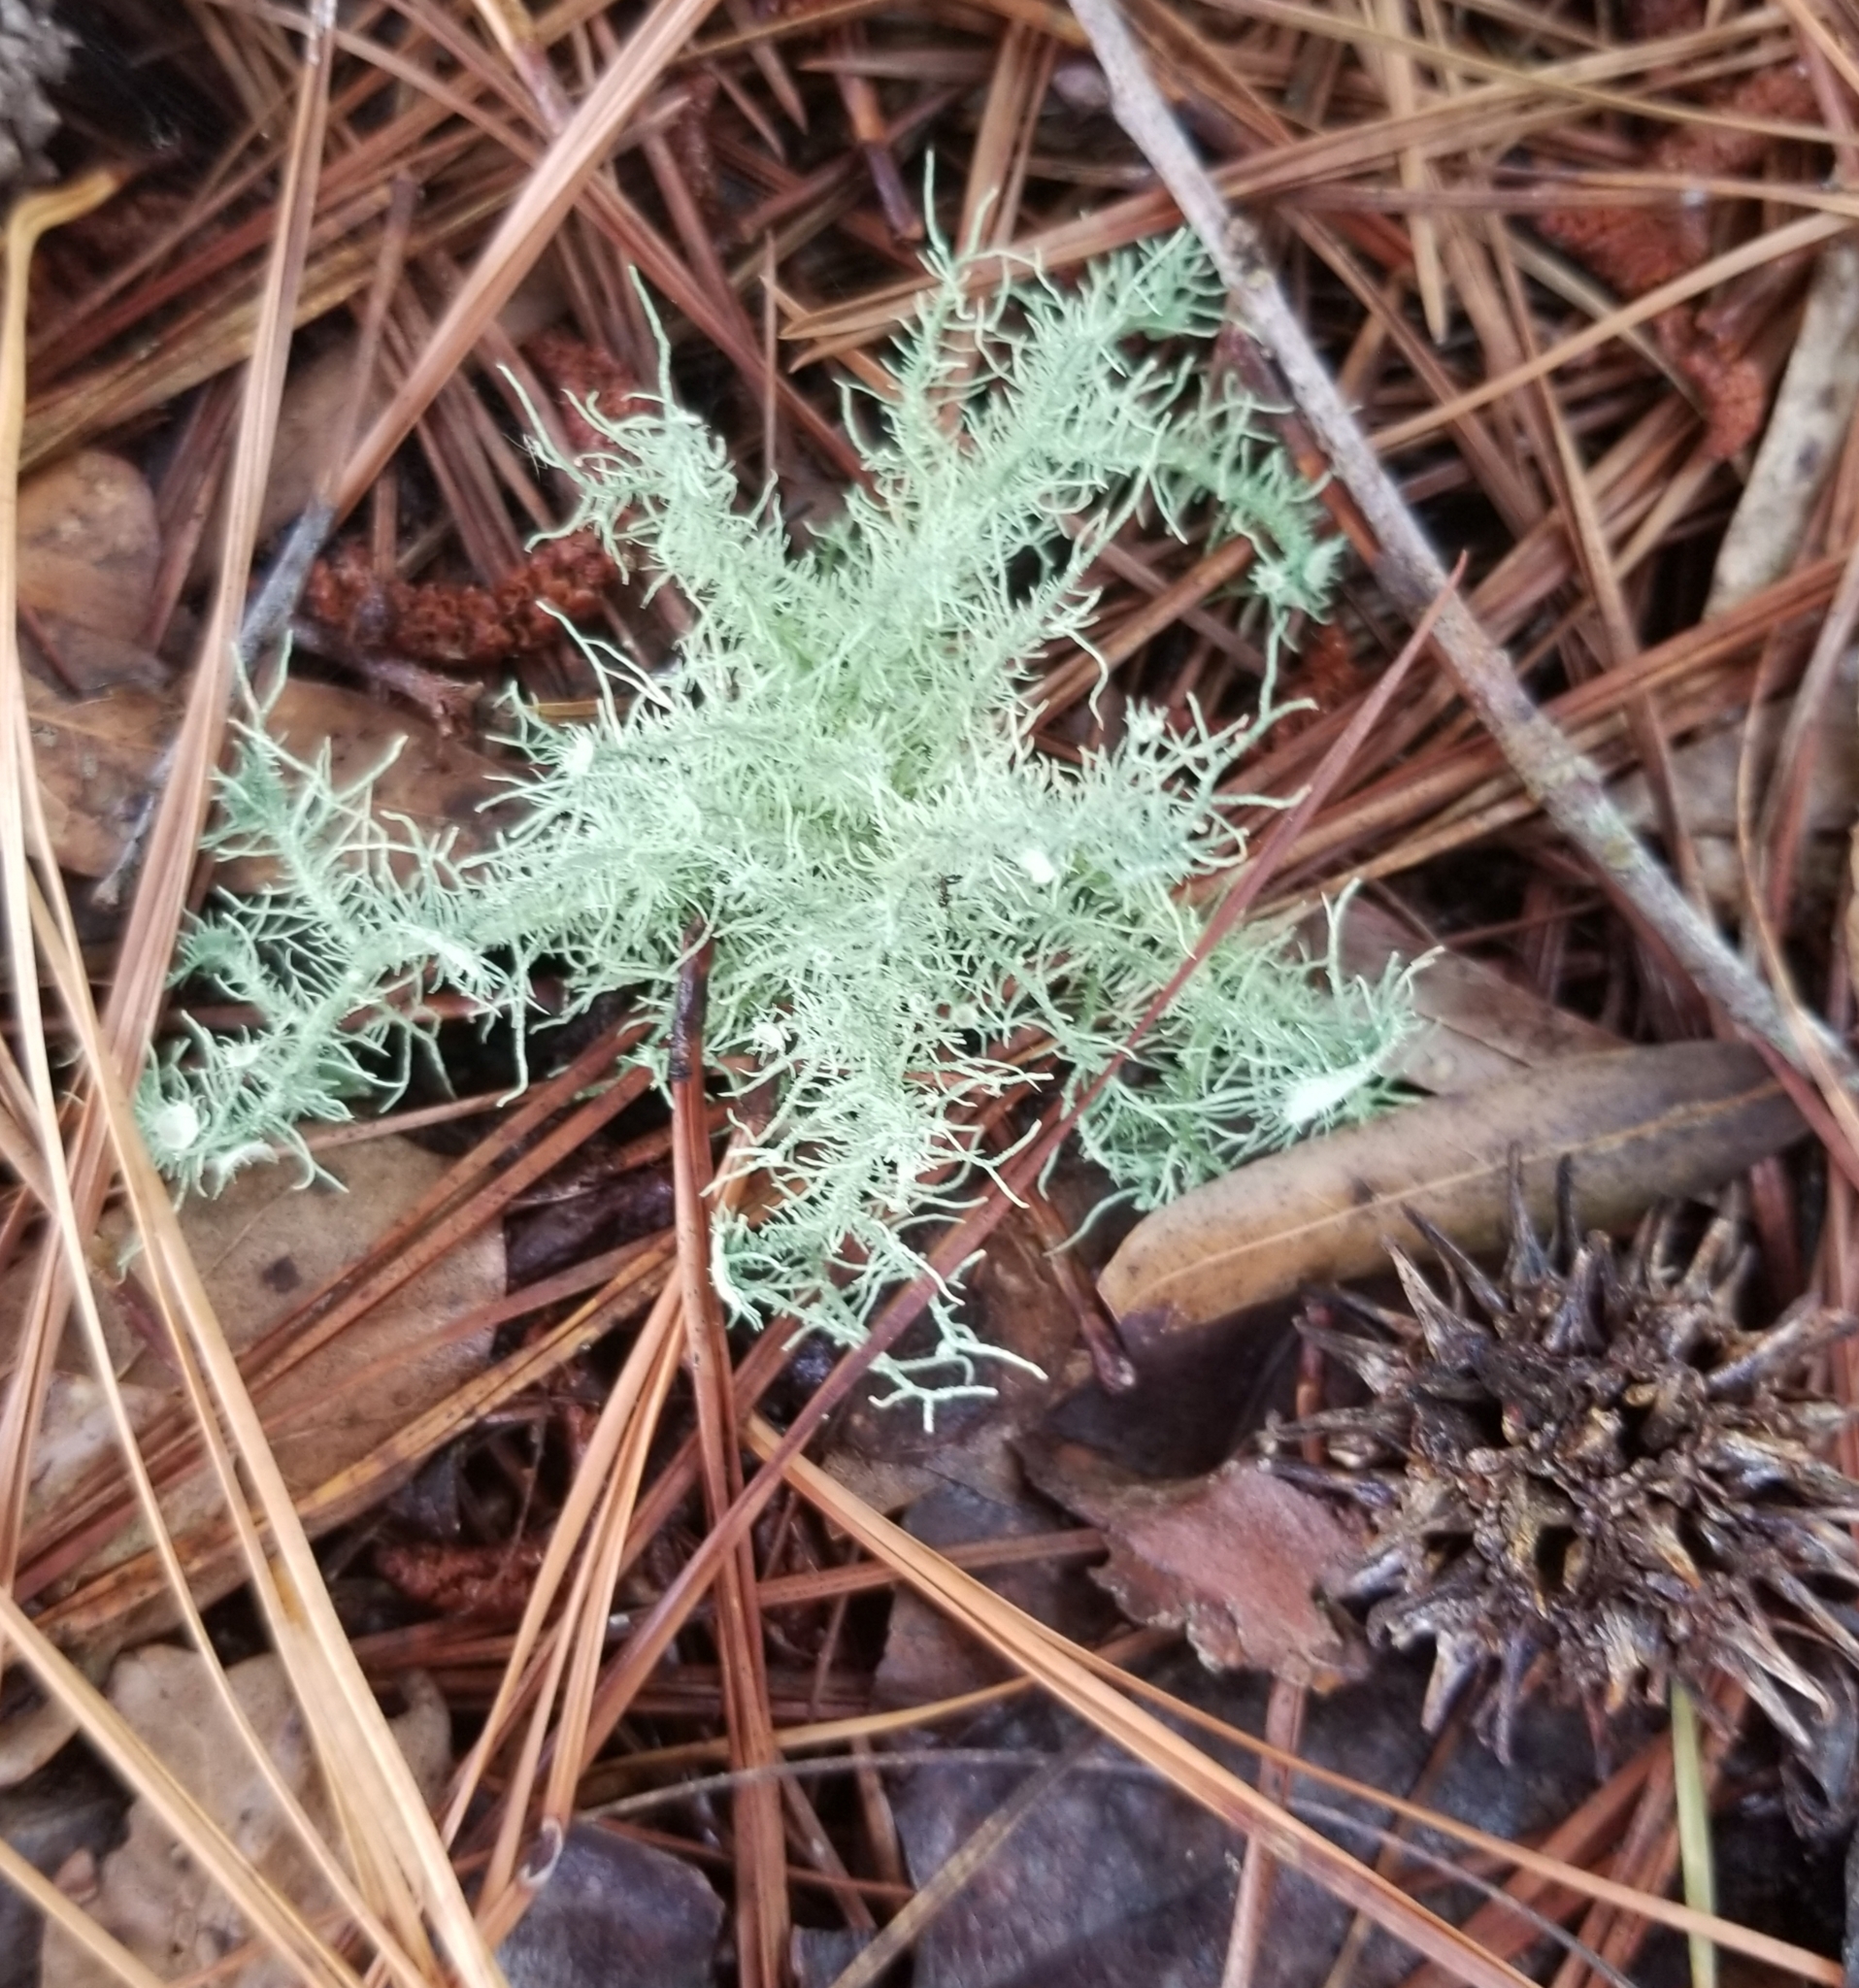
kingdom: Fungi
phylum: Ascomycota
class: Lecanoromycetes
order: Lecanorales
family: Parmeliaceae
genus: Usnea
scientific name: Usnea strigosa
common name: Bushy beard lichen
